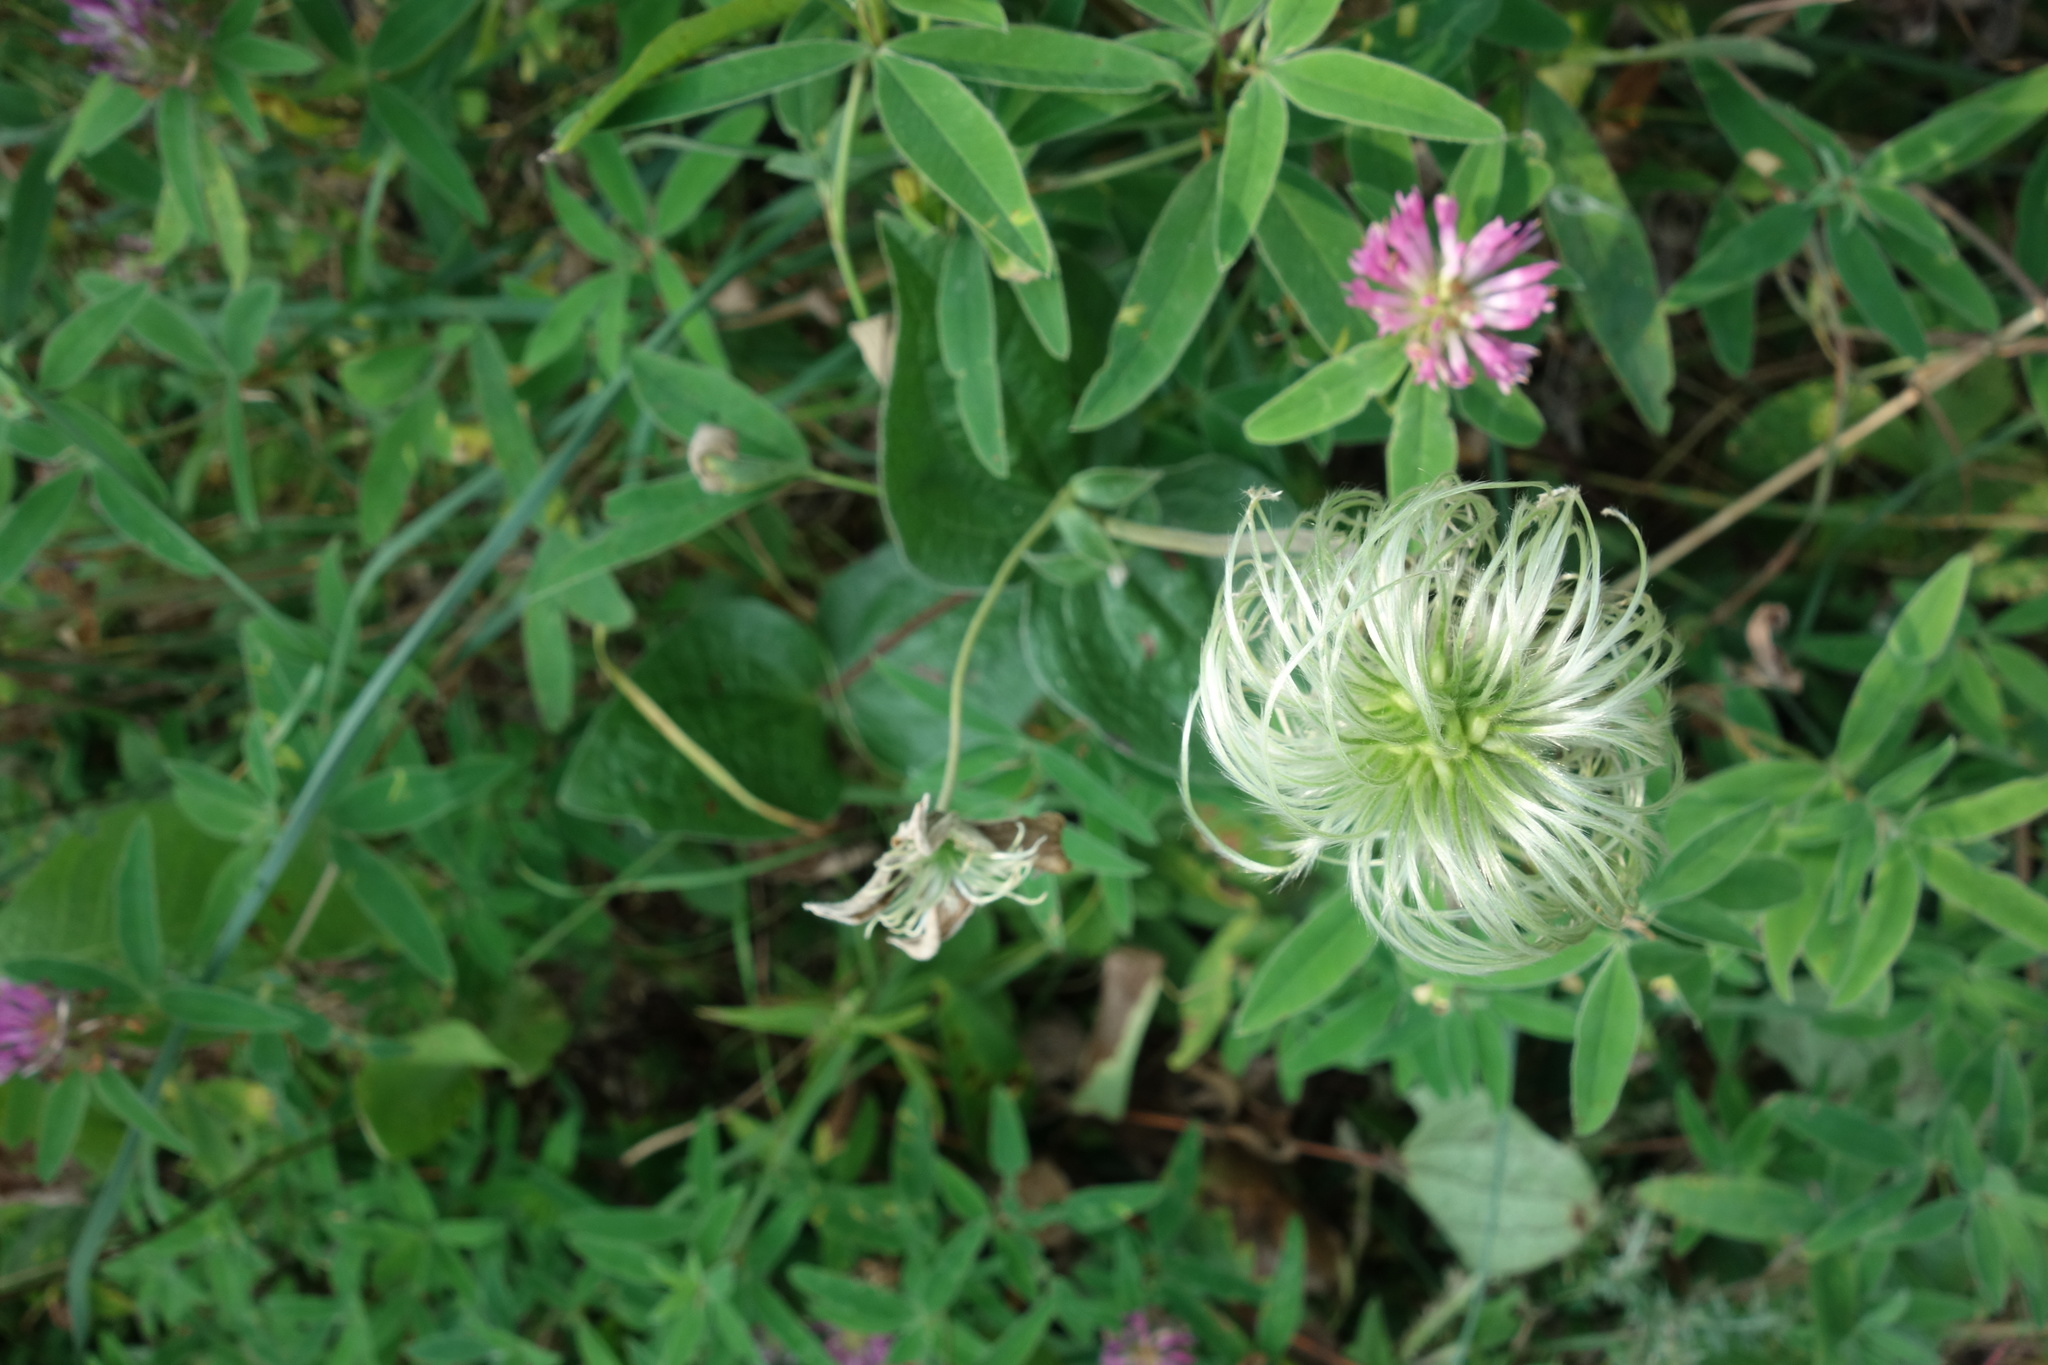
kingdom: Plantae
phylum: Tracheophyta
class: Magnoliopsida
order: Ranunculales
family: Ranunculaceae
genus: Clematis
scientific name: Clematis integrifolia
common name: Solitary clematis
